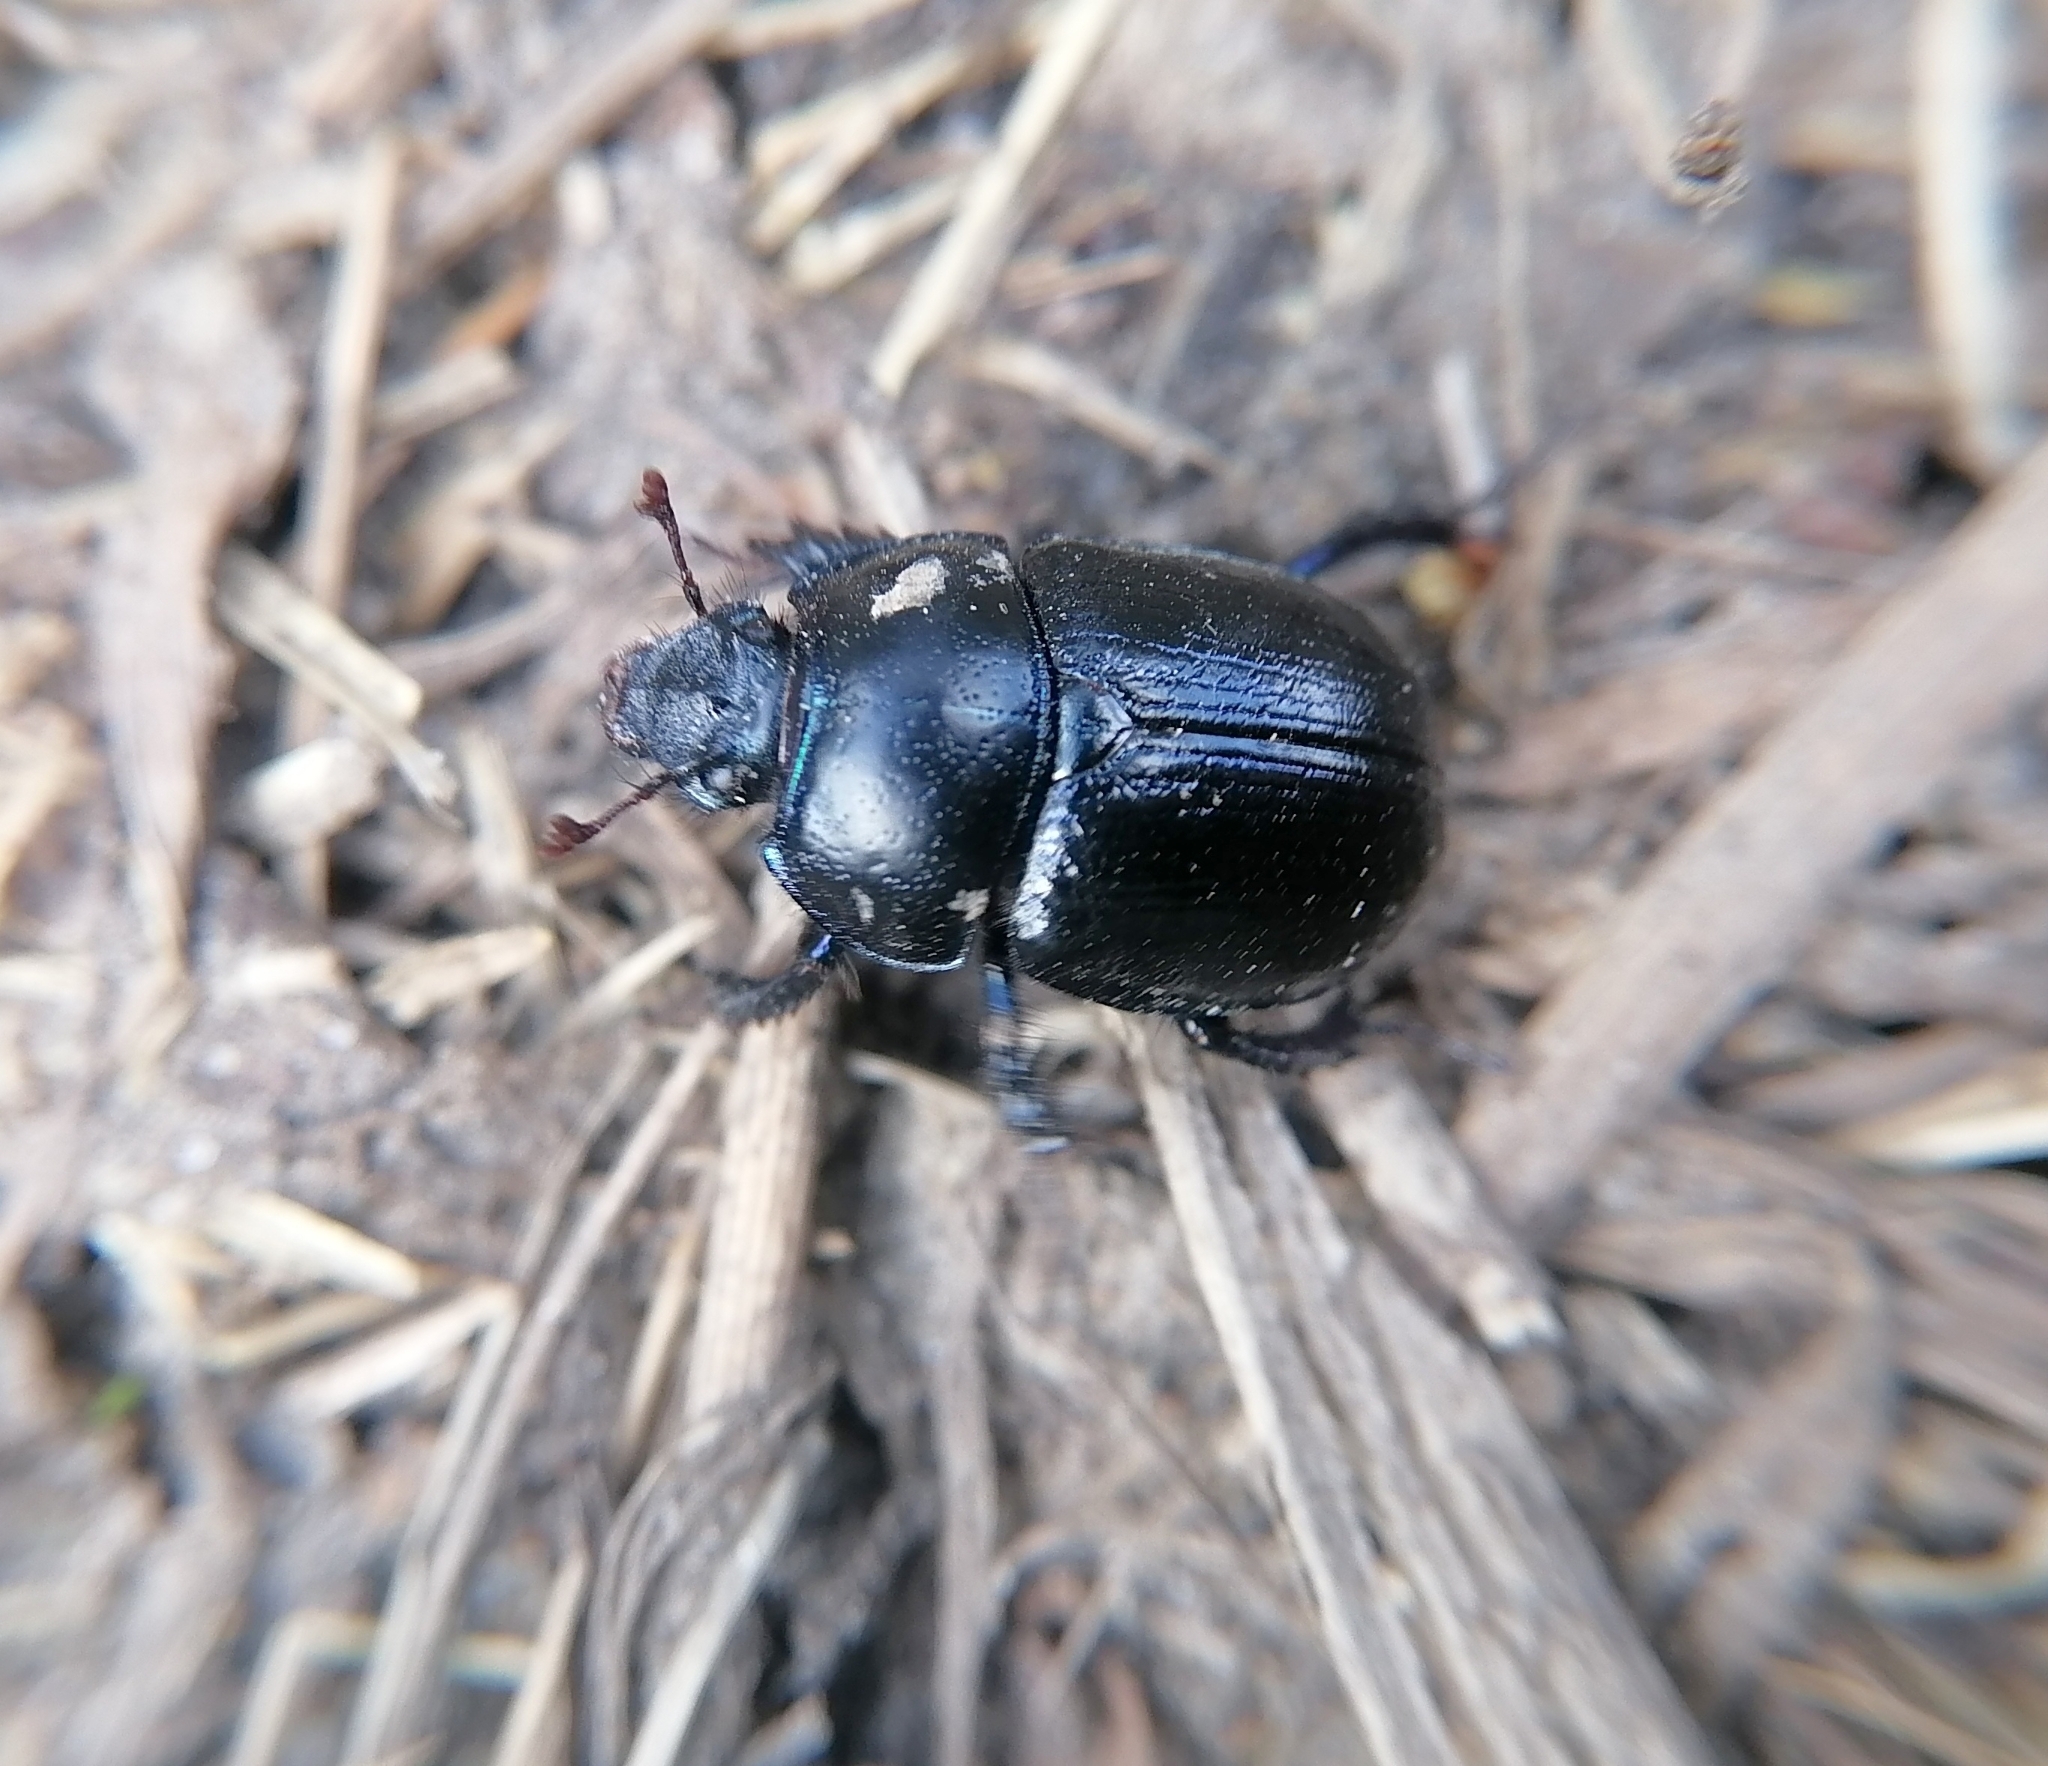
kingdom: Animalia
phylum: Arthropoda
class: Insecta
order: Coleoptera
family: Geotrupidae
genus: Anoplotrupes
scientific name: Anoplotrupes stercorosus
